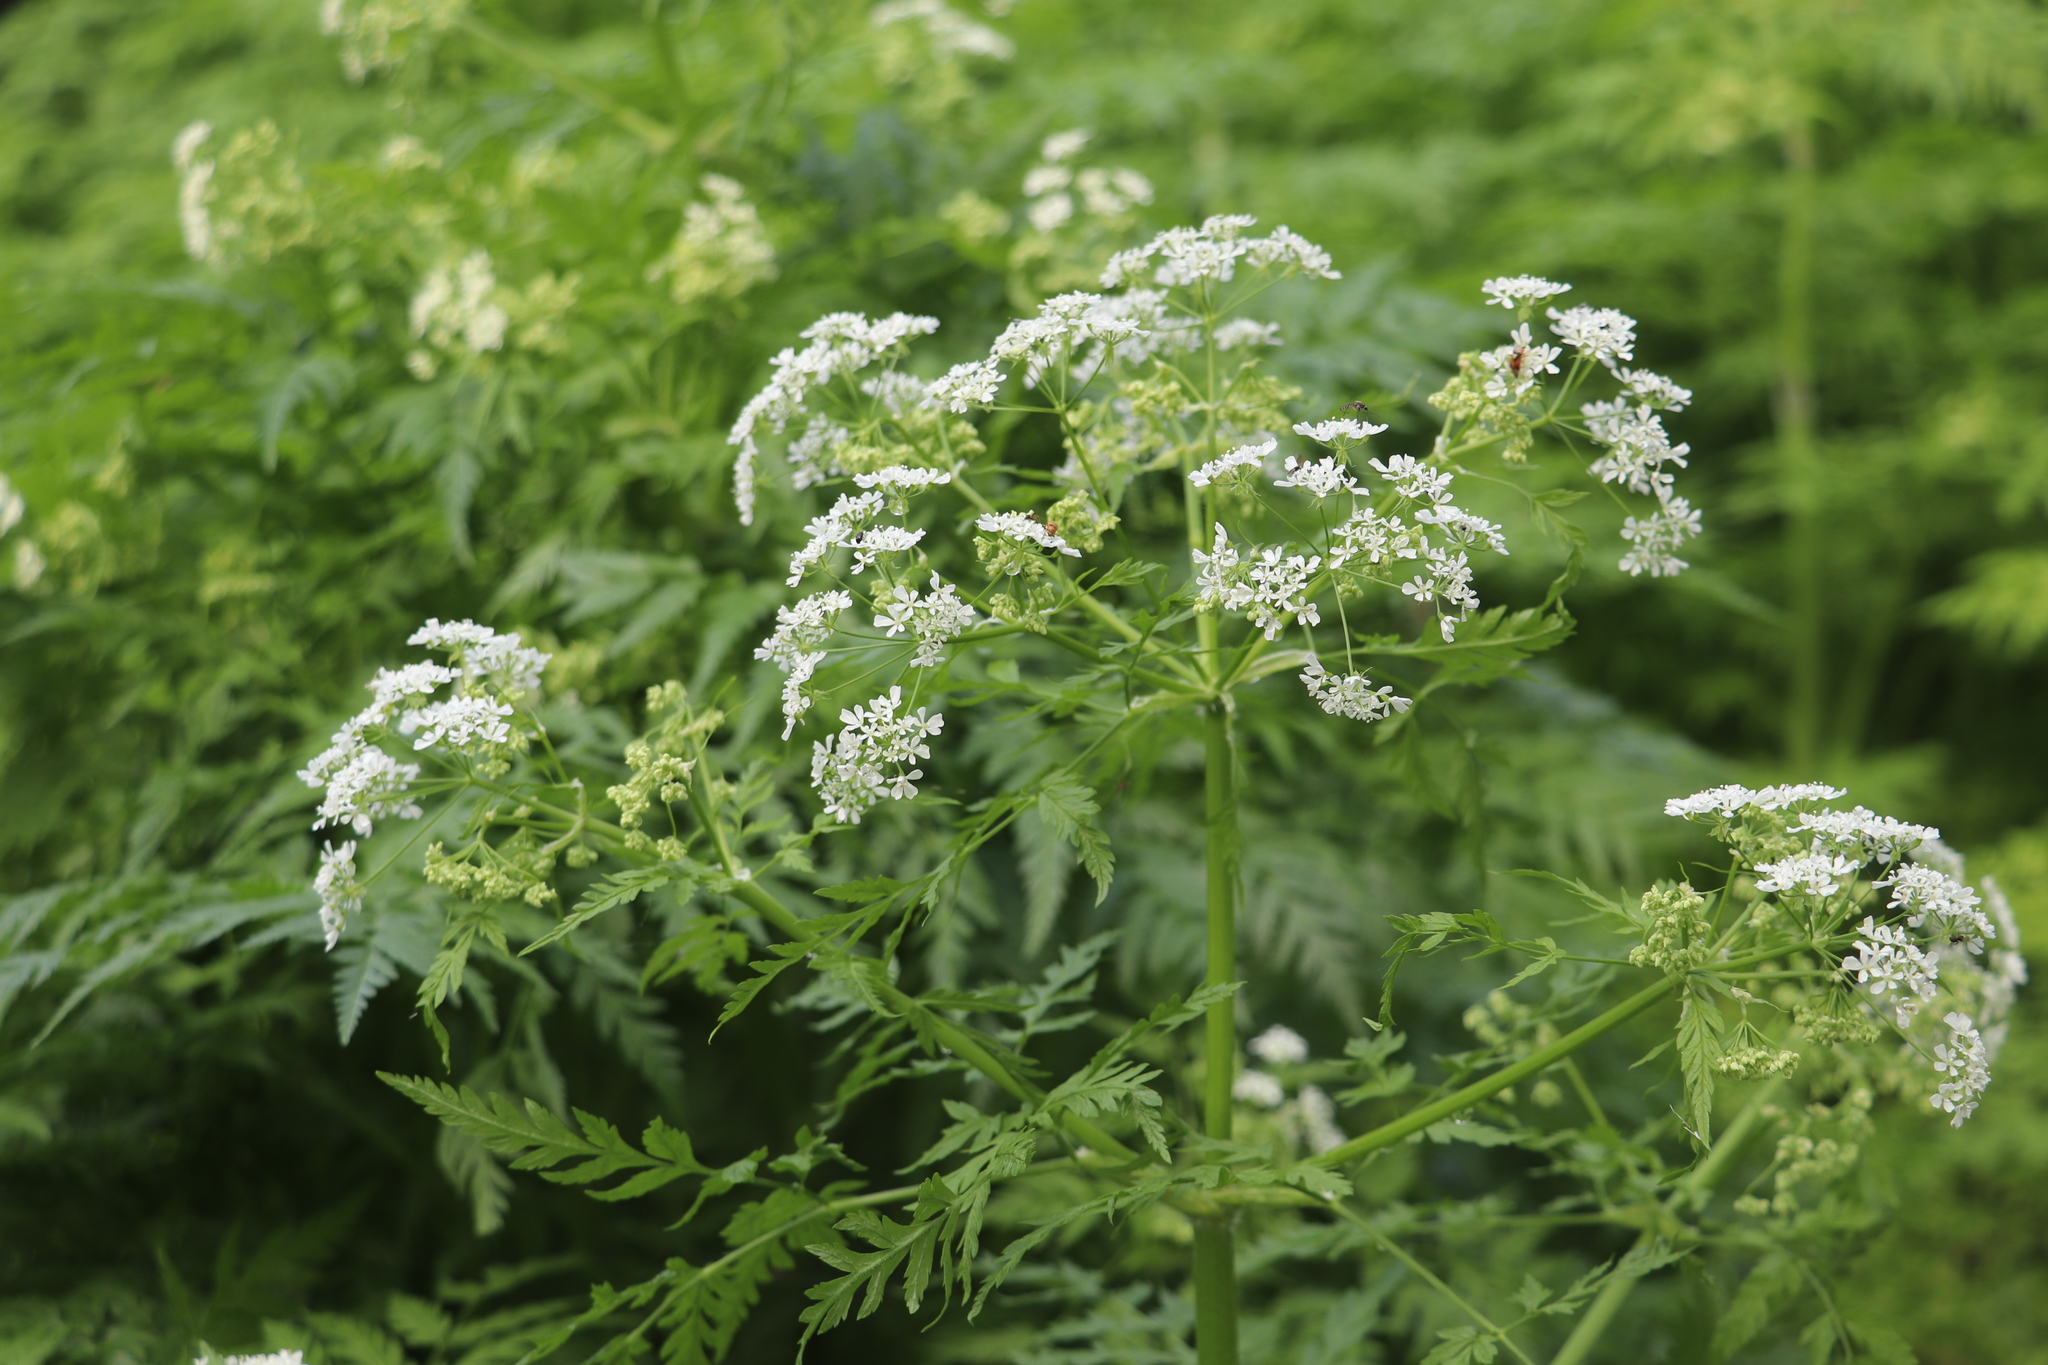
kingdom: Plantae
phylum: Tracheophyta
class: Magnoliopsida
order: Apiales
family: Apiaceae
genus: Anthriscus
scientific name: Anthriscus sylvestris
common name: Cow parsley
